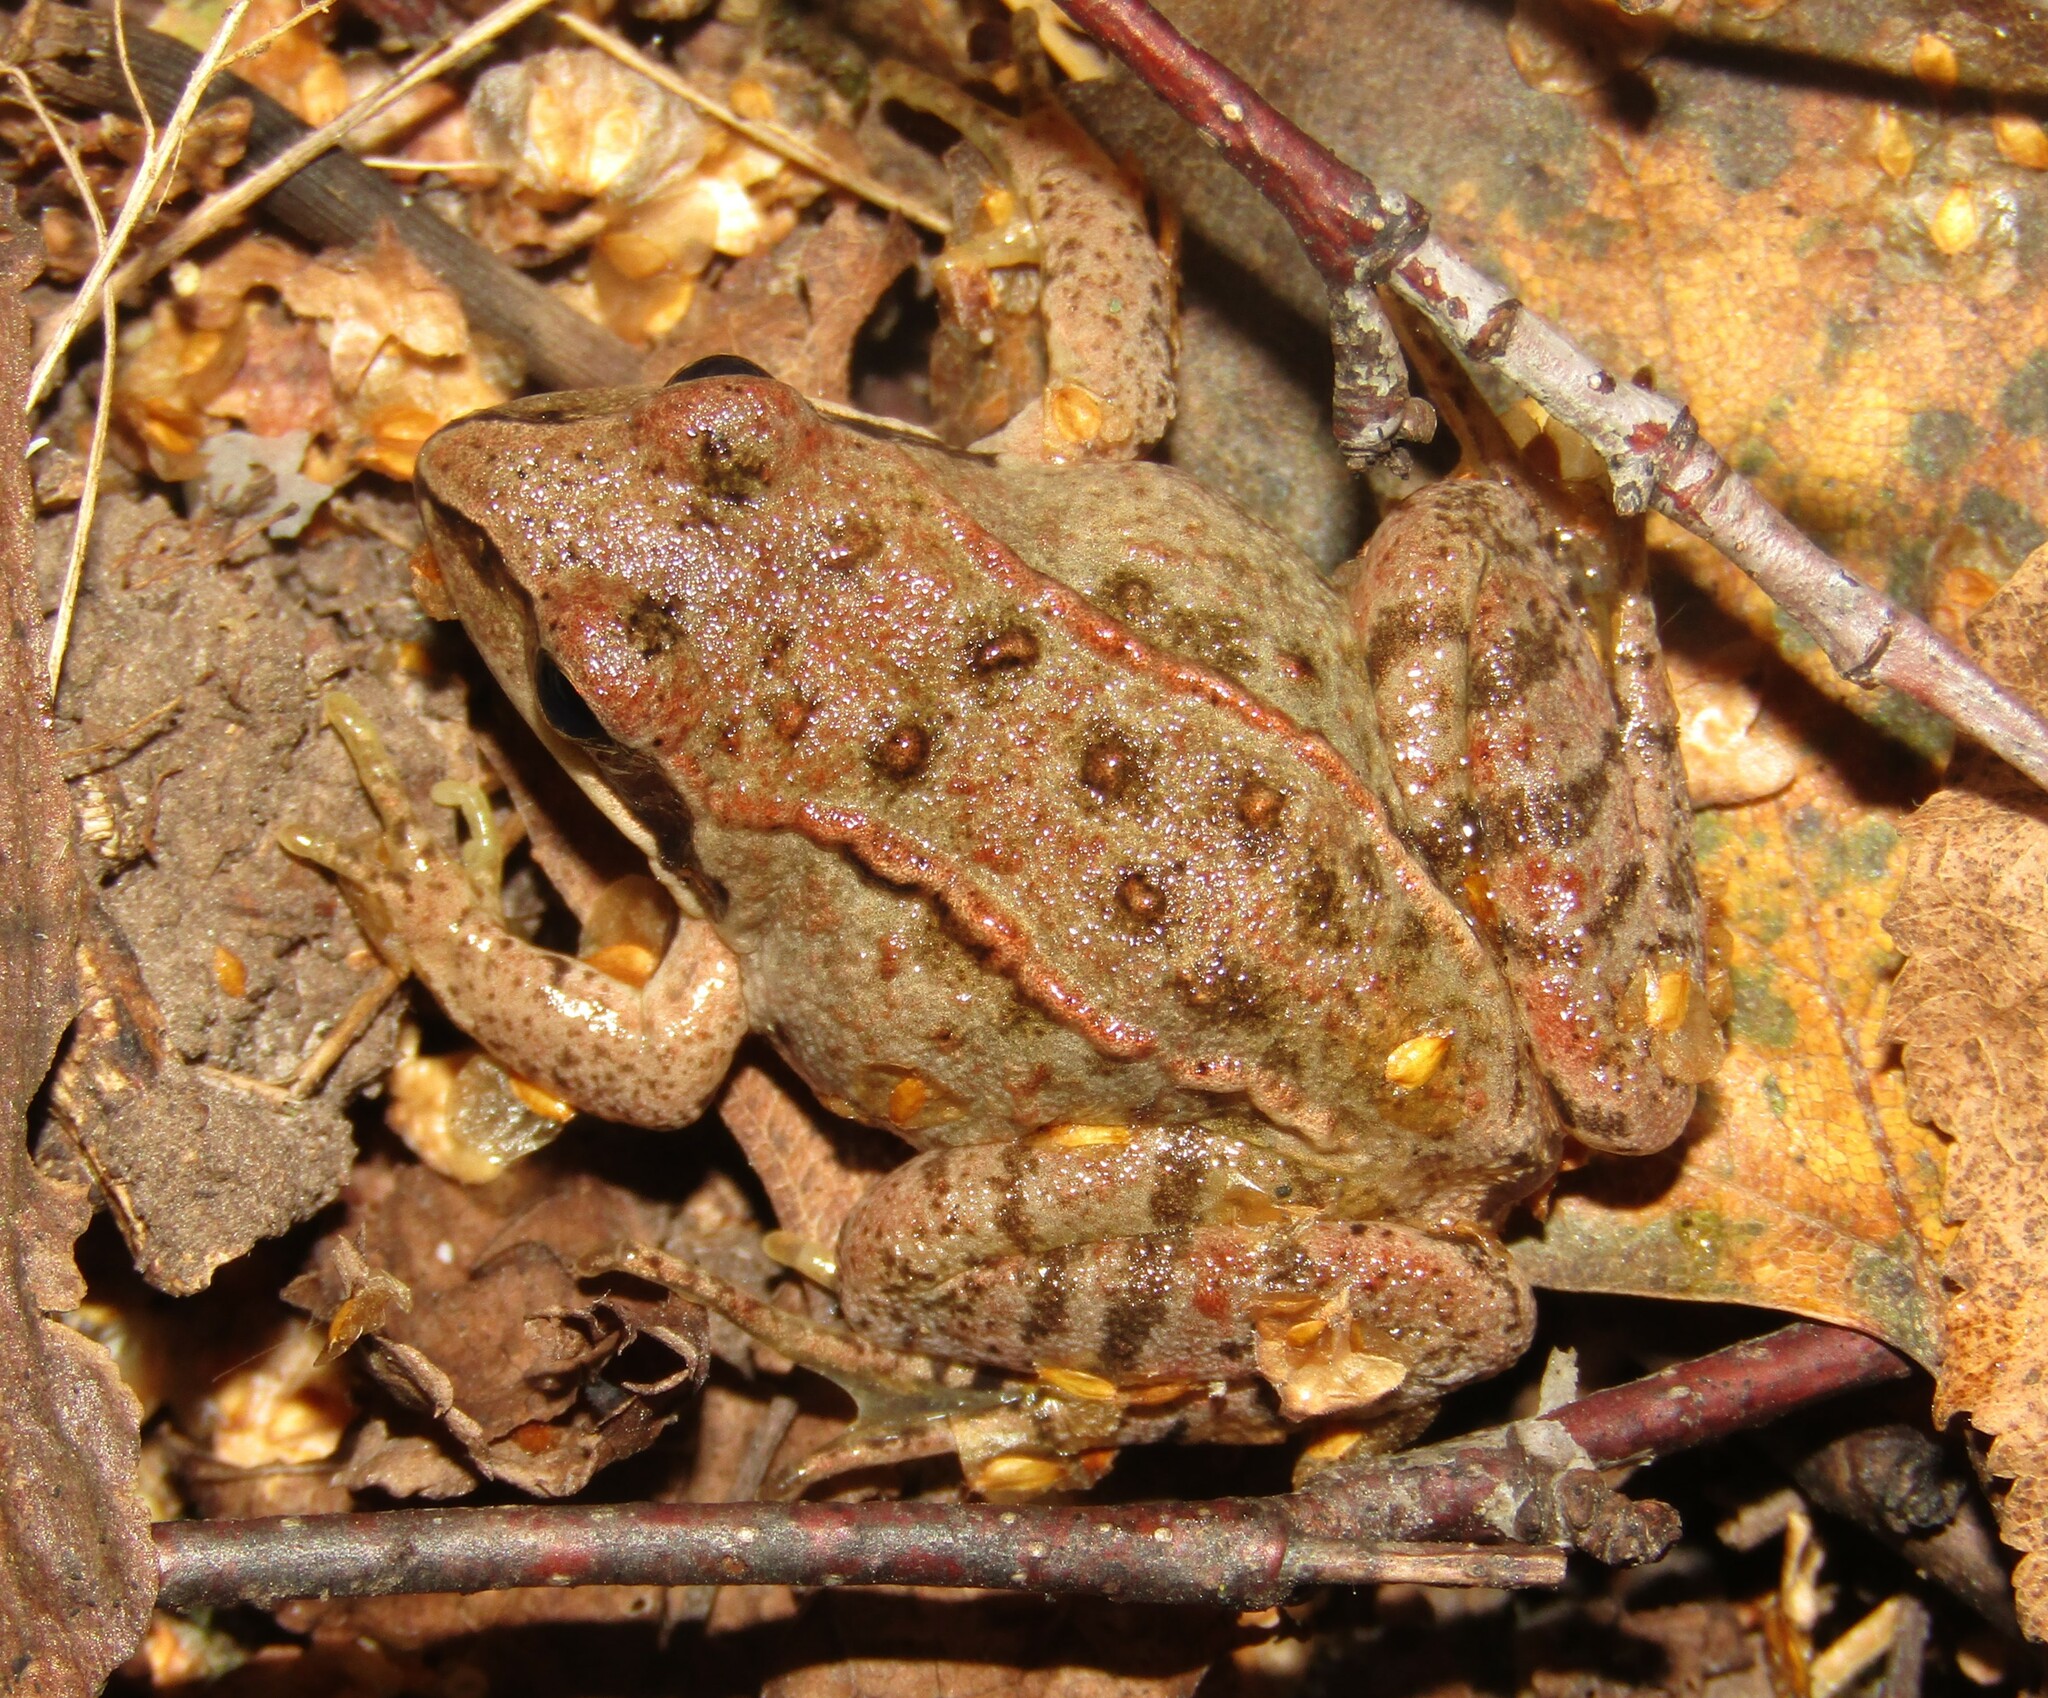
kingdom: Animalia
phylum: Chordata
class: Amphibia
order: Anura
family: Ranidae
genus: Rana
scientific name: Rana arvalis
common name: Moor frog
